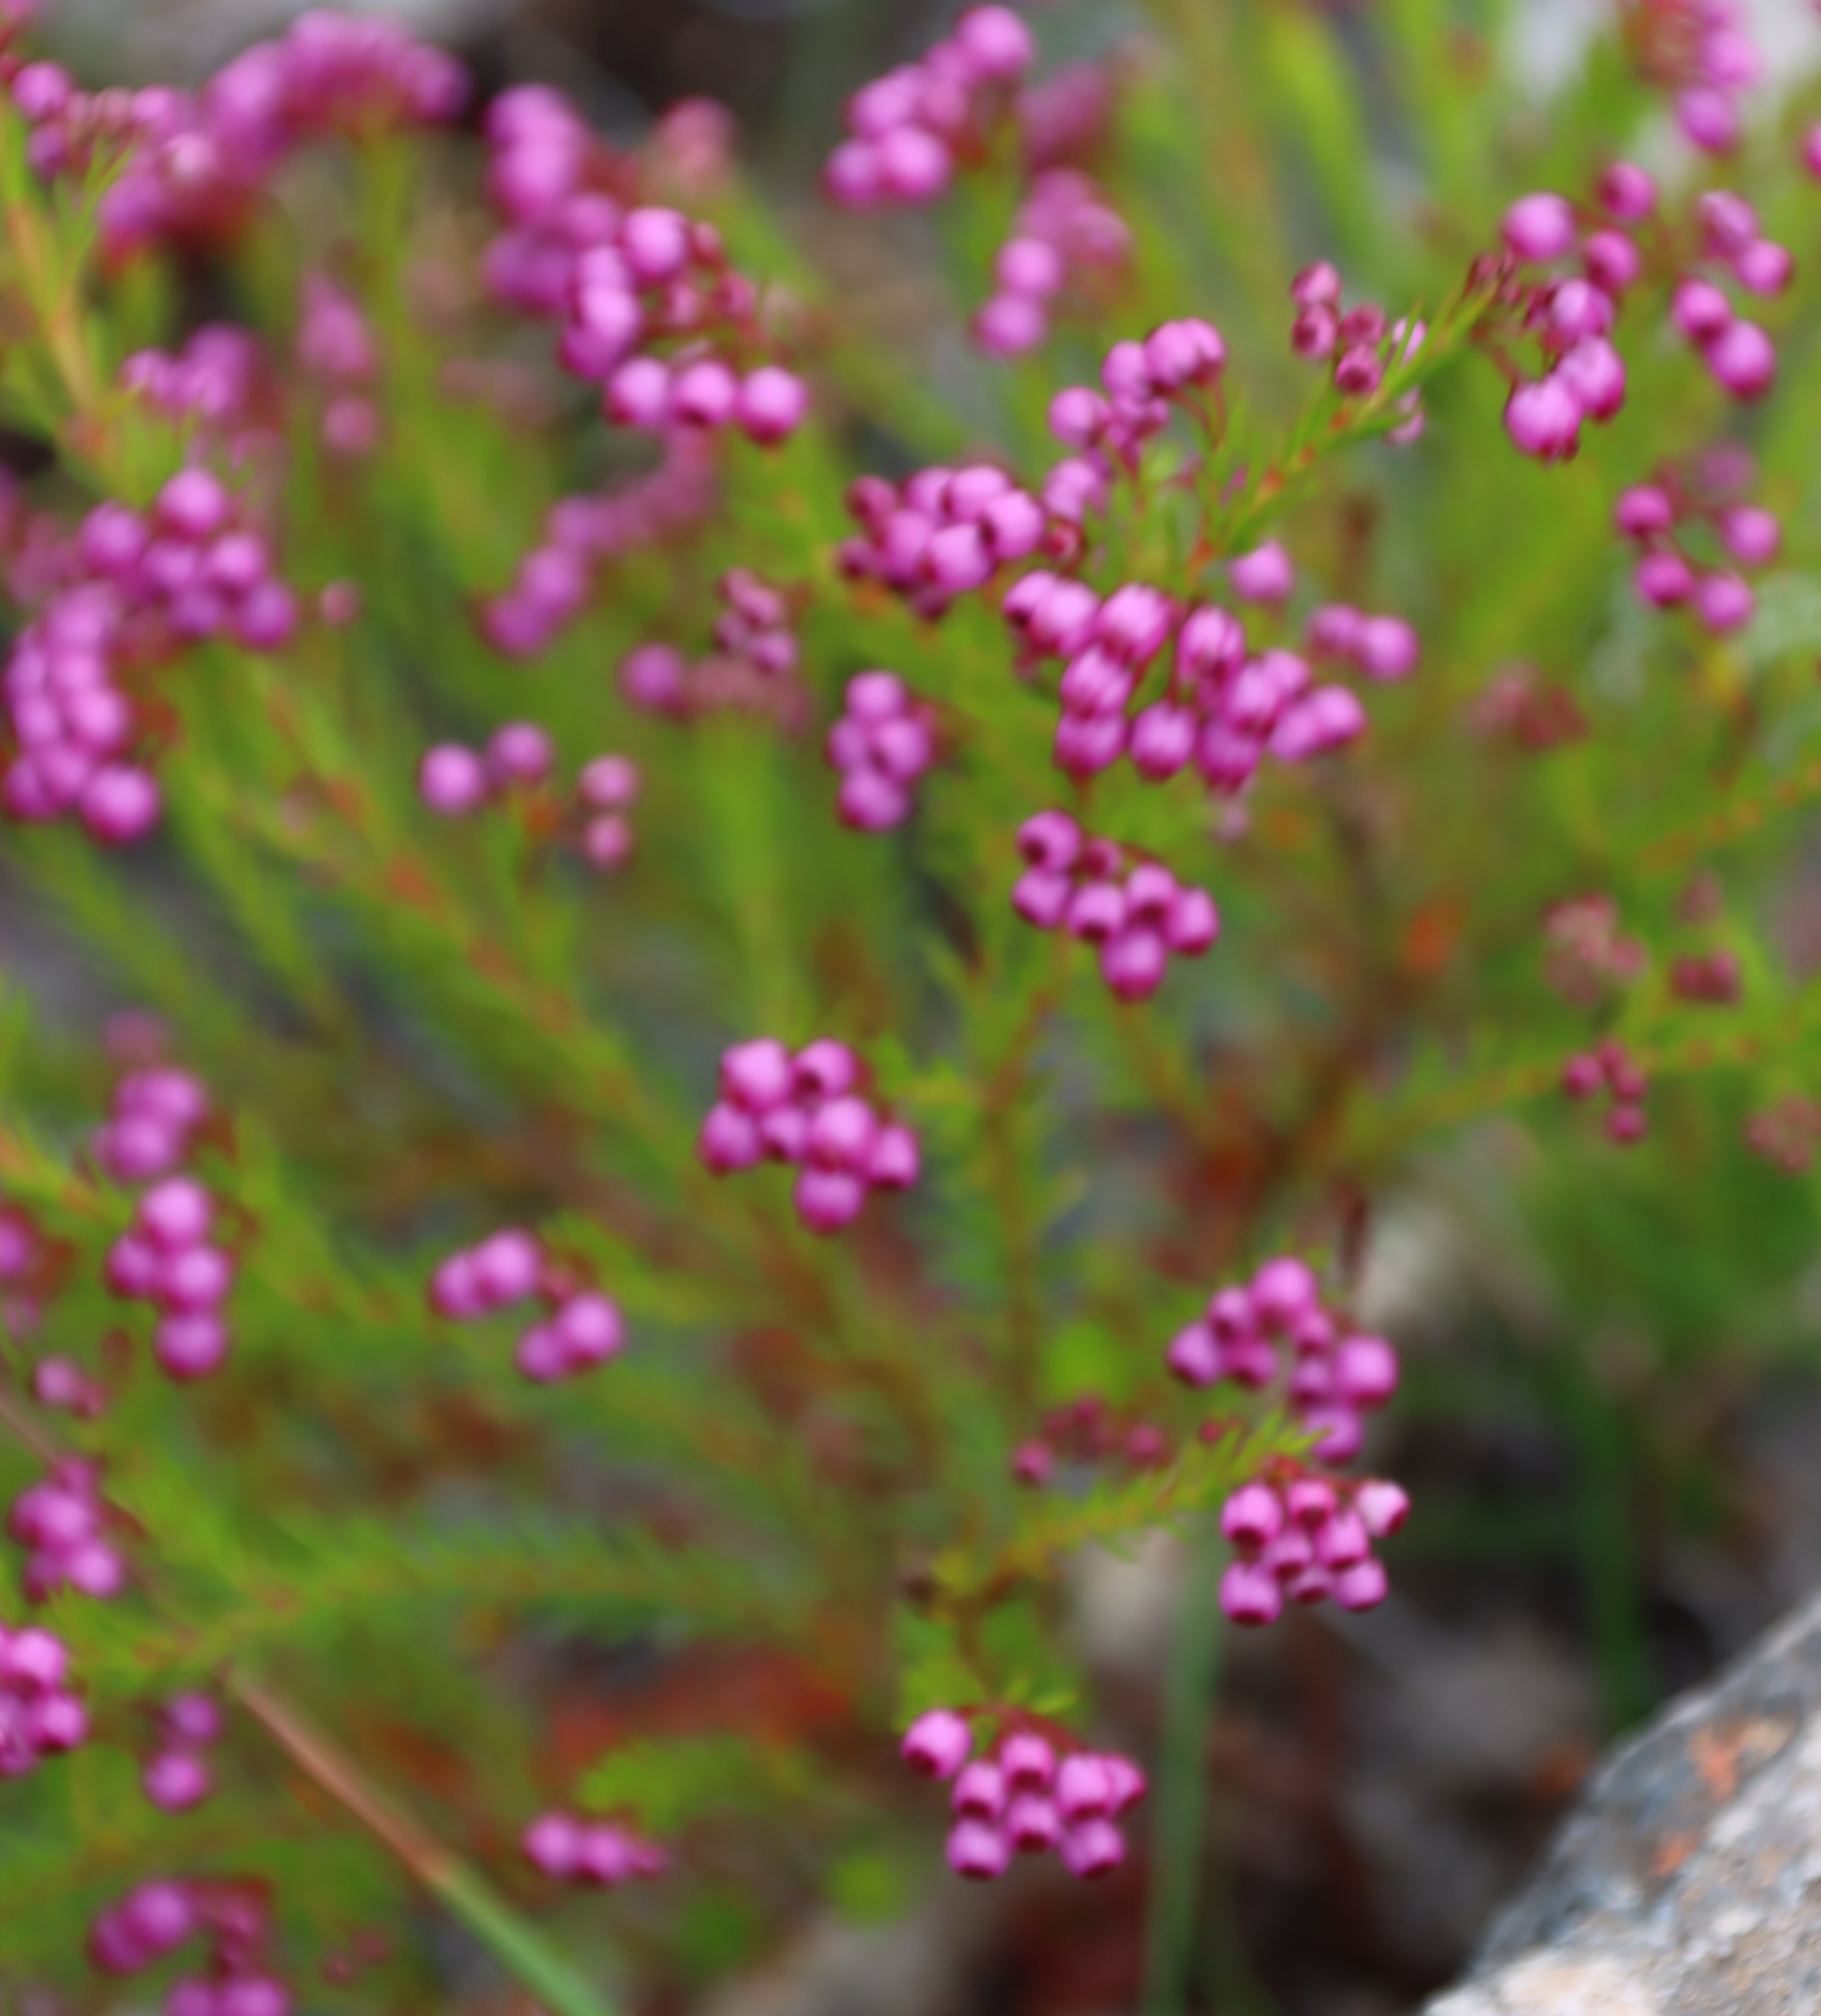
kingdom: Plantae
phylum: Tracheophyta
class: Magnoliopsida
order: Ericales
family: Ericaceae
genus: Erica
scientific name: Erica multumbellifera
